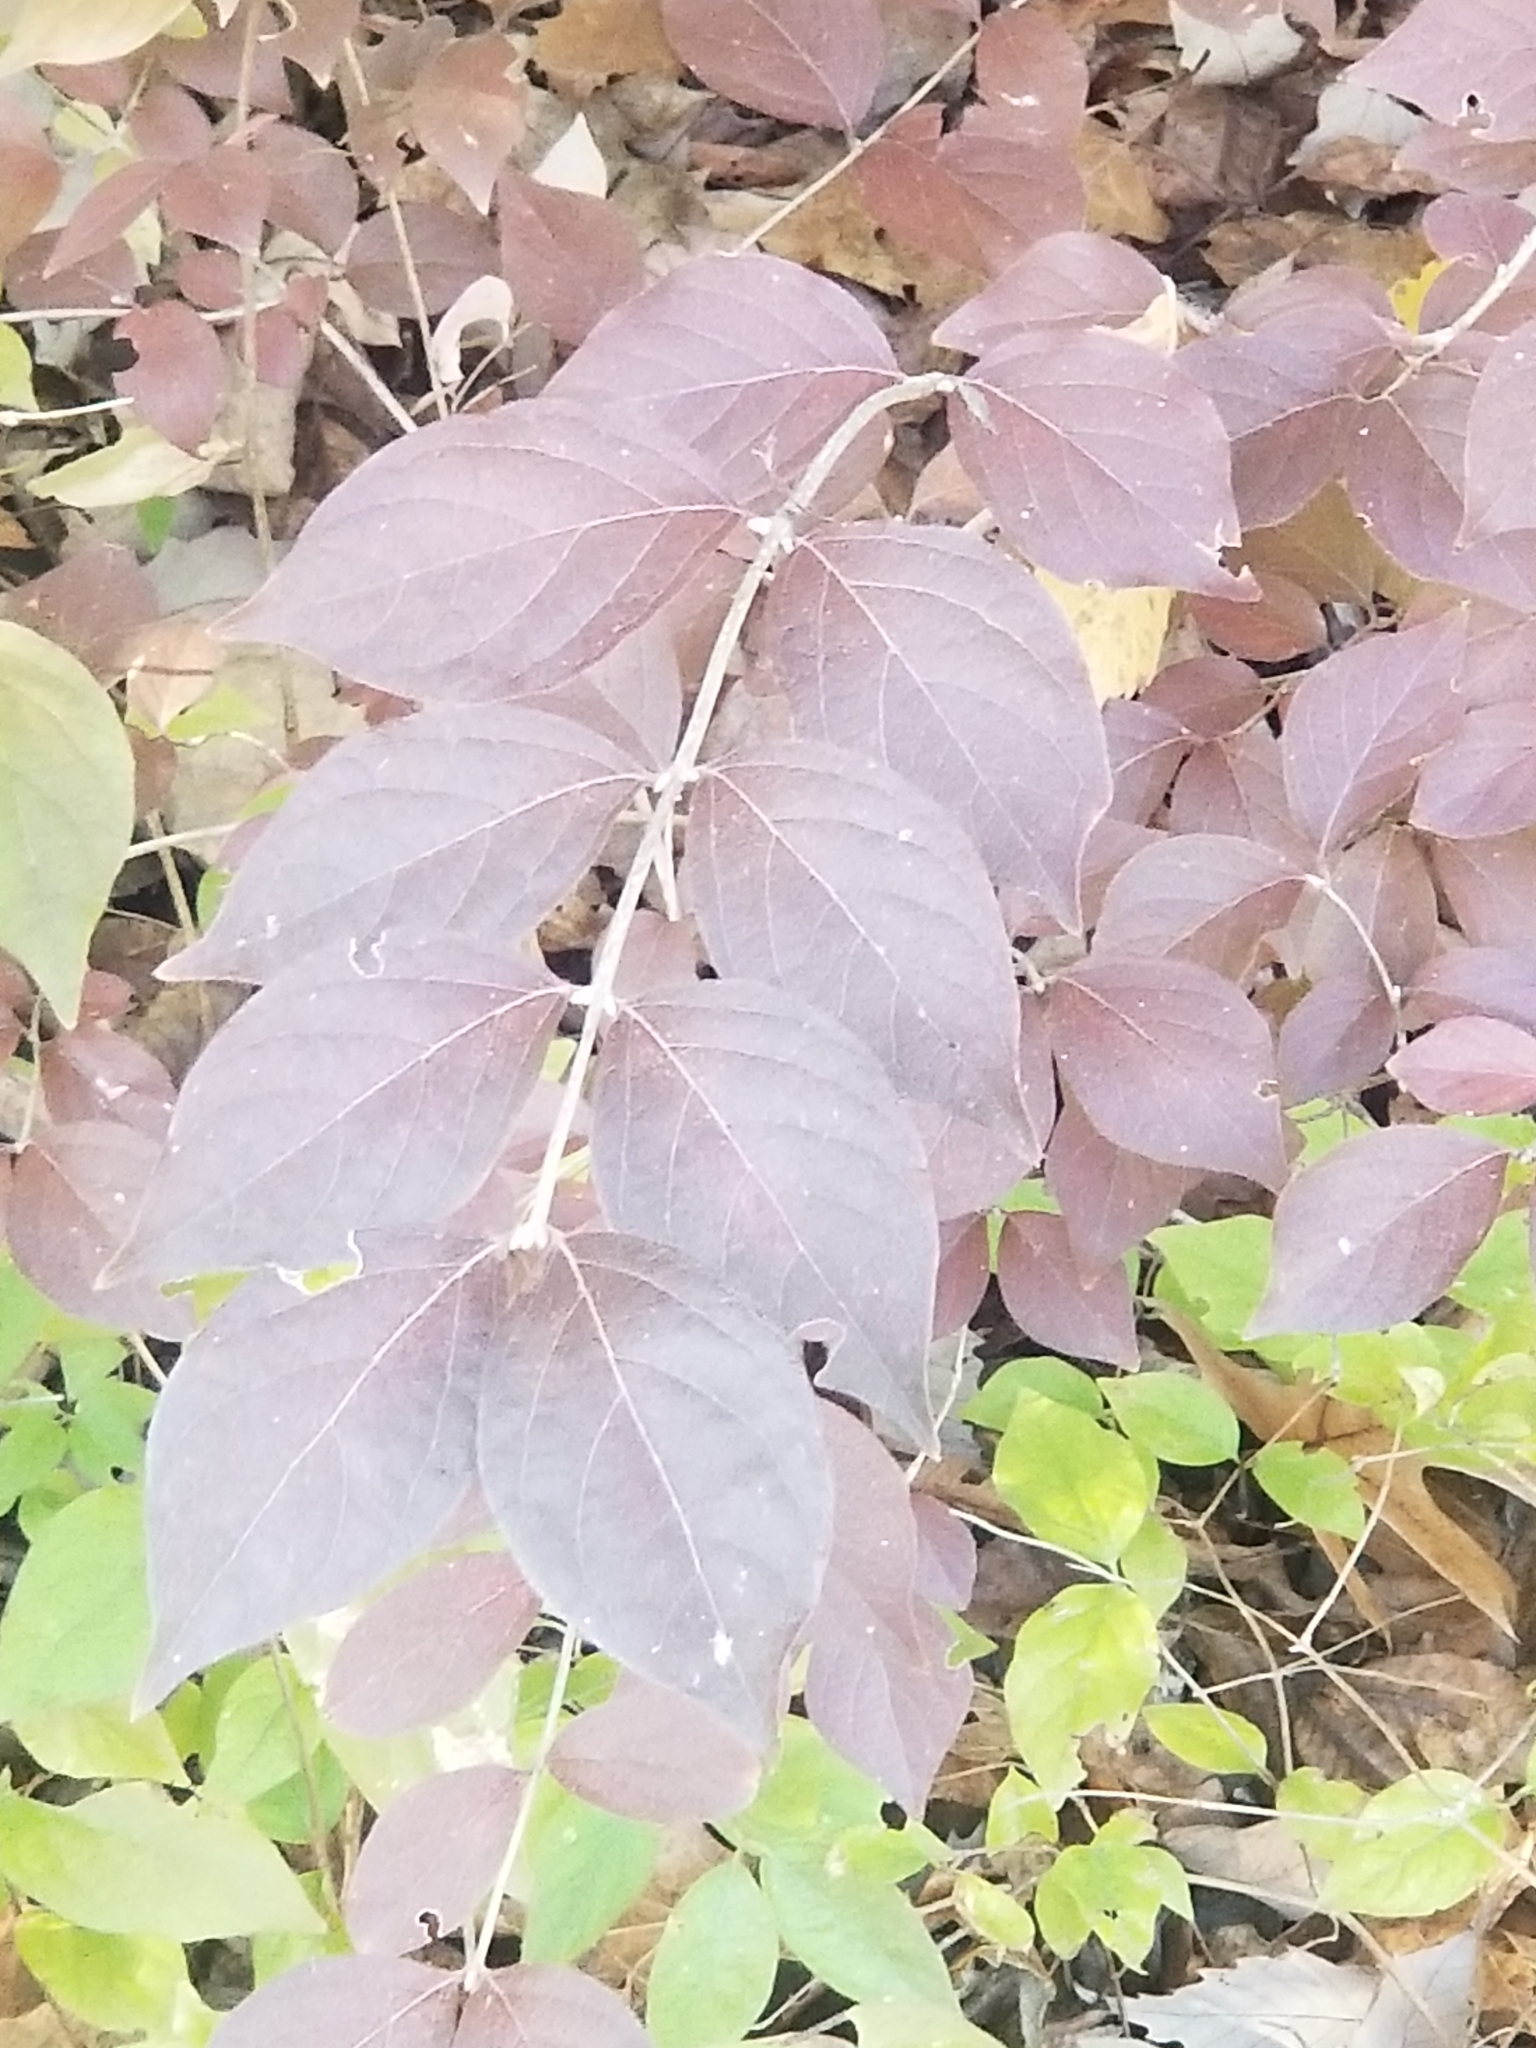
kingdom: Plantae
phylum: Tracheophyta
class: Magnoliopsida
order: Dipsacales
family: Caprifoliaceae
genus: Lonicera
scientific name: Lonicera maackii
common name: Amur honeysuckle
